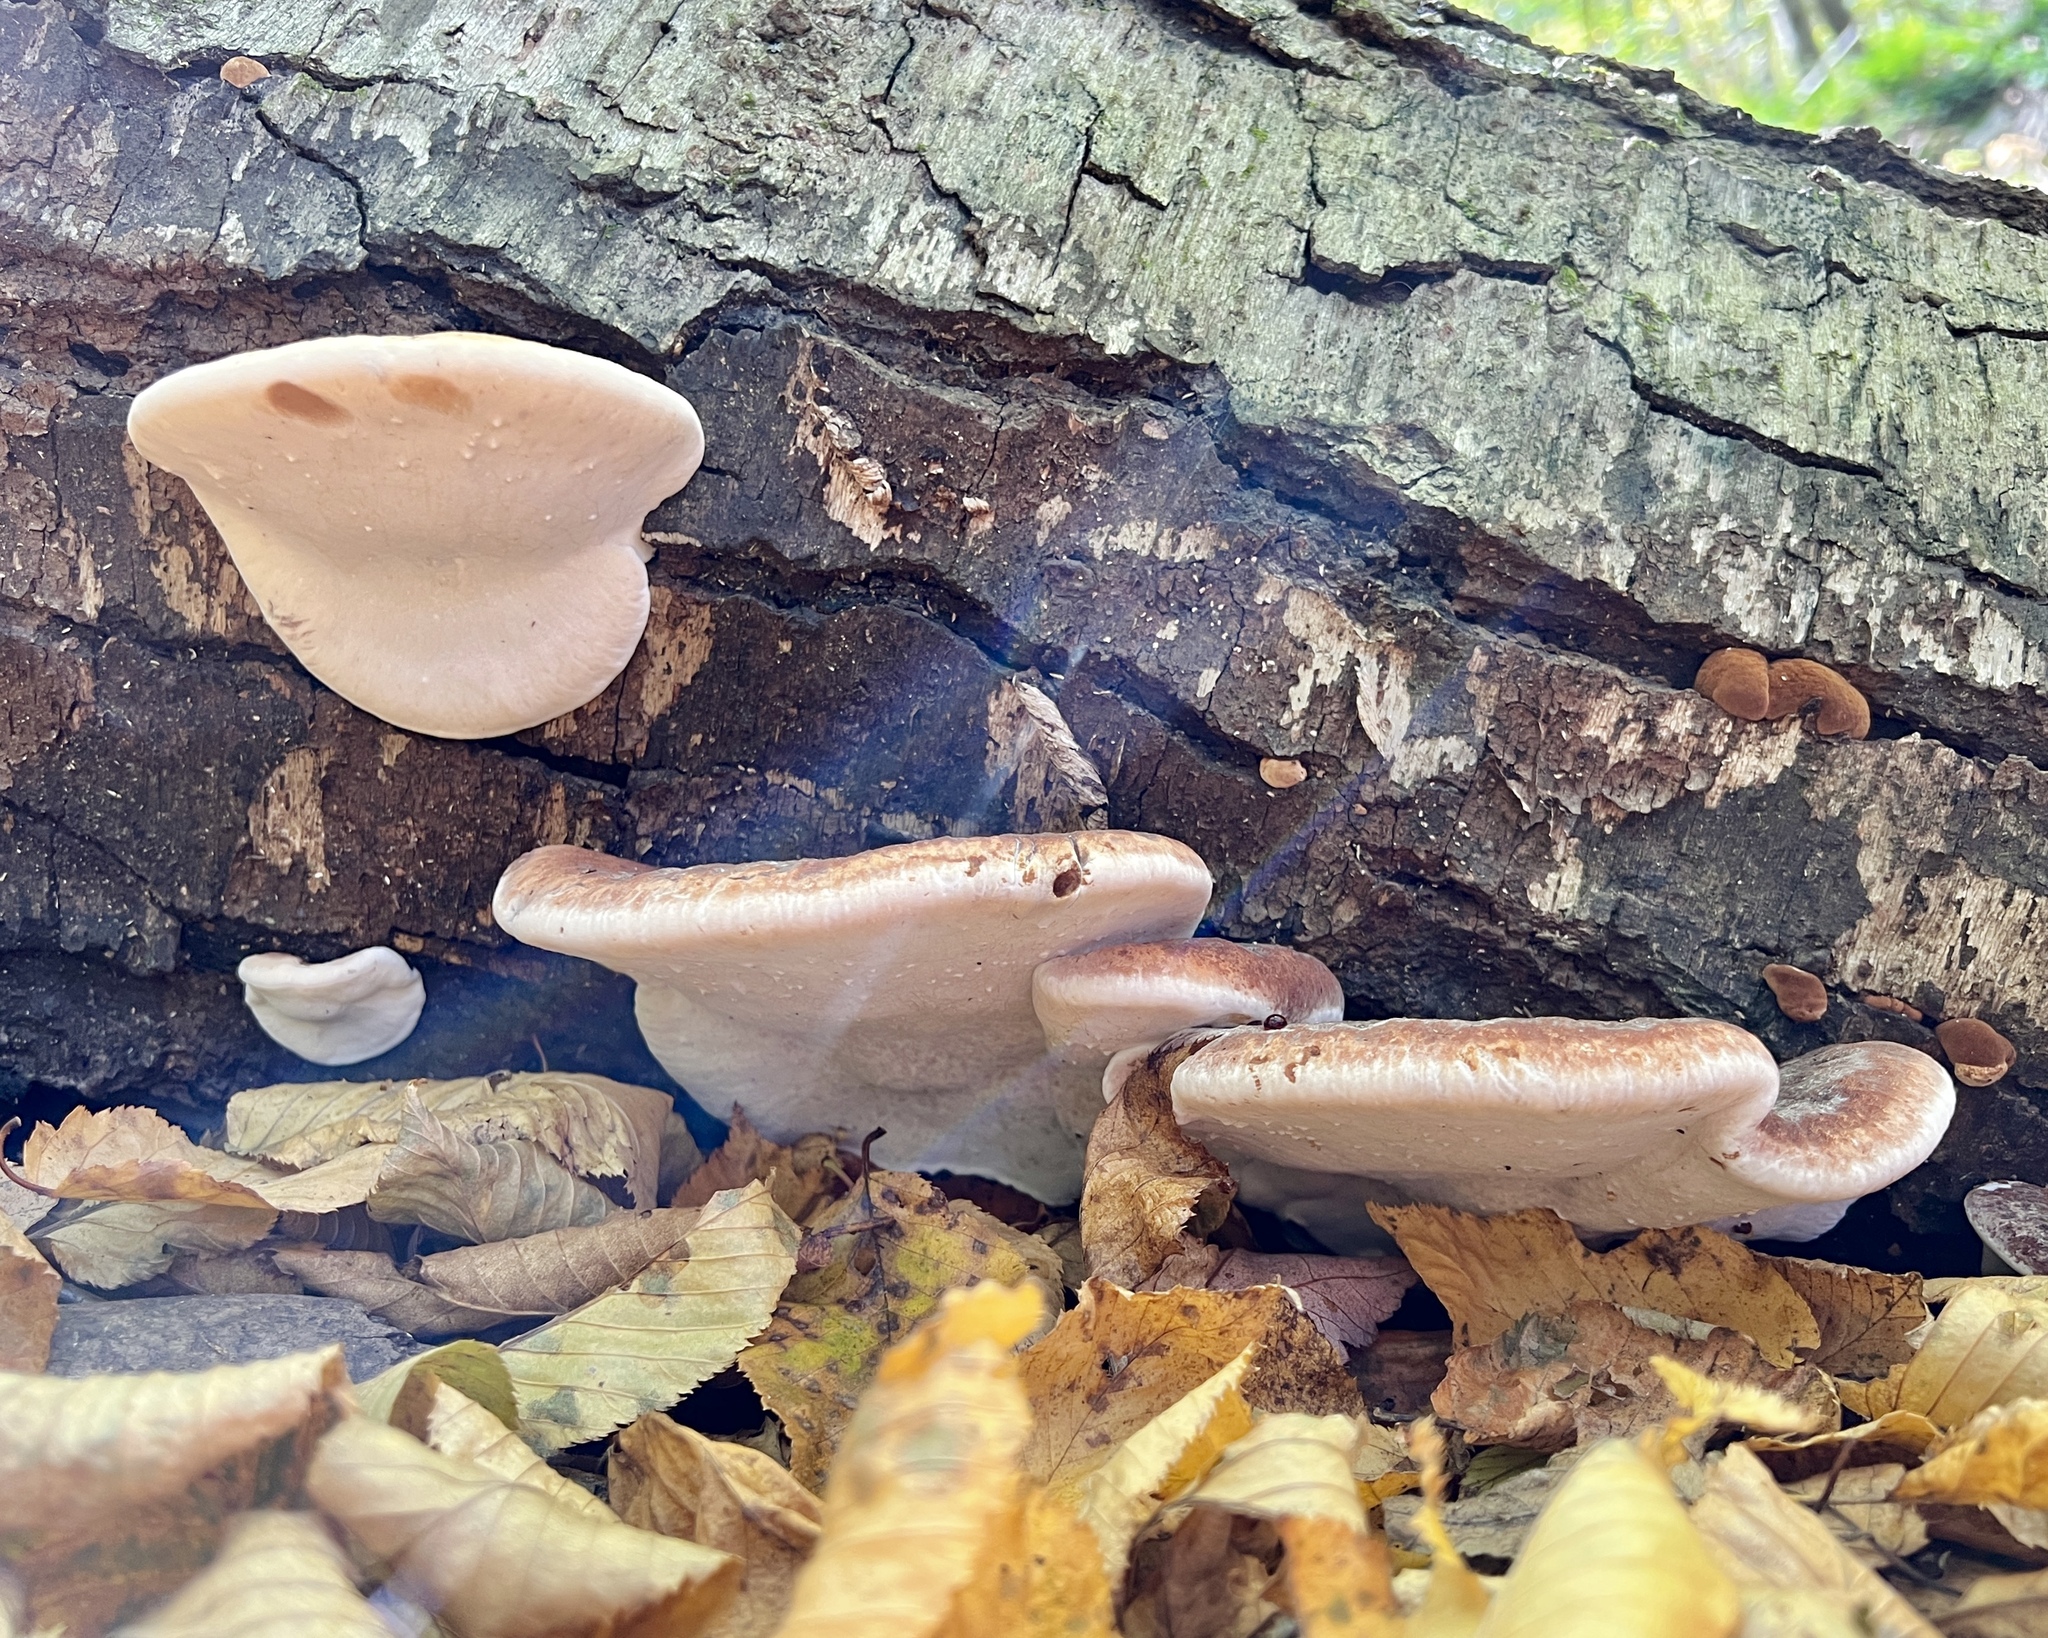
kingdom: Fungi
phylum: Basidiomycota
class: Agaricomycetes
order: Polyporales
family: Ischnodermataceae
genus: Ischnoderma
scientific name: Ischnoderma resinosum
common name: Resinous polypore
